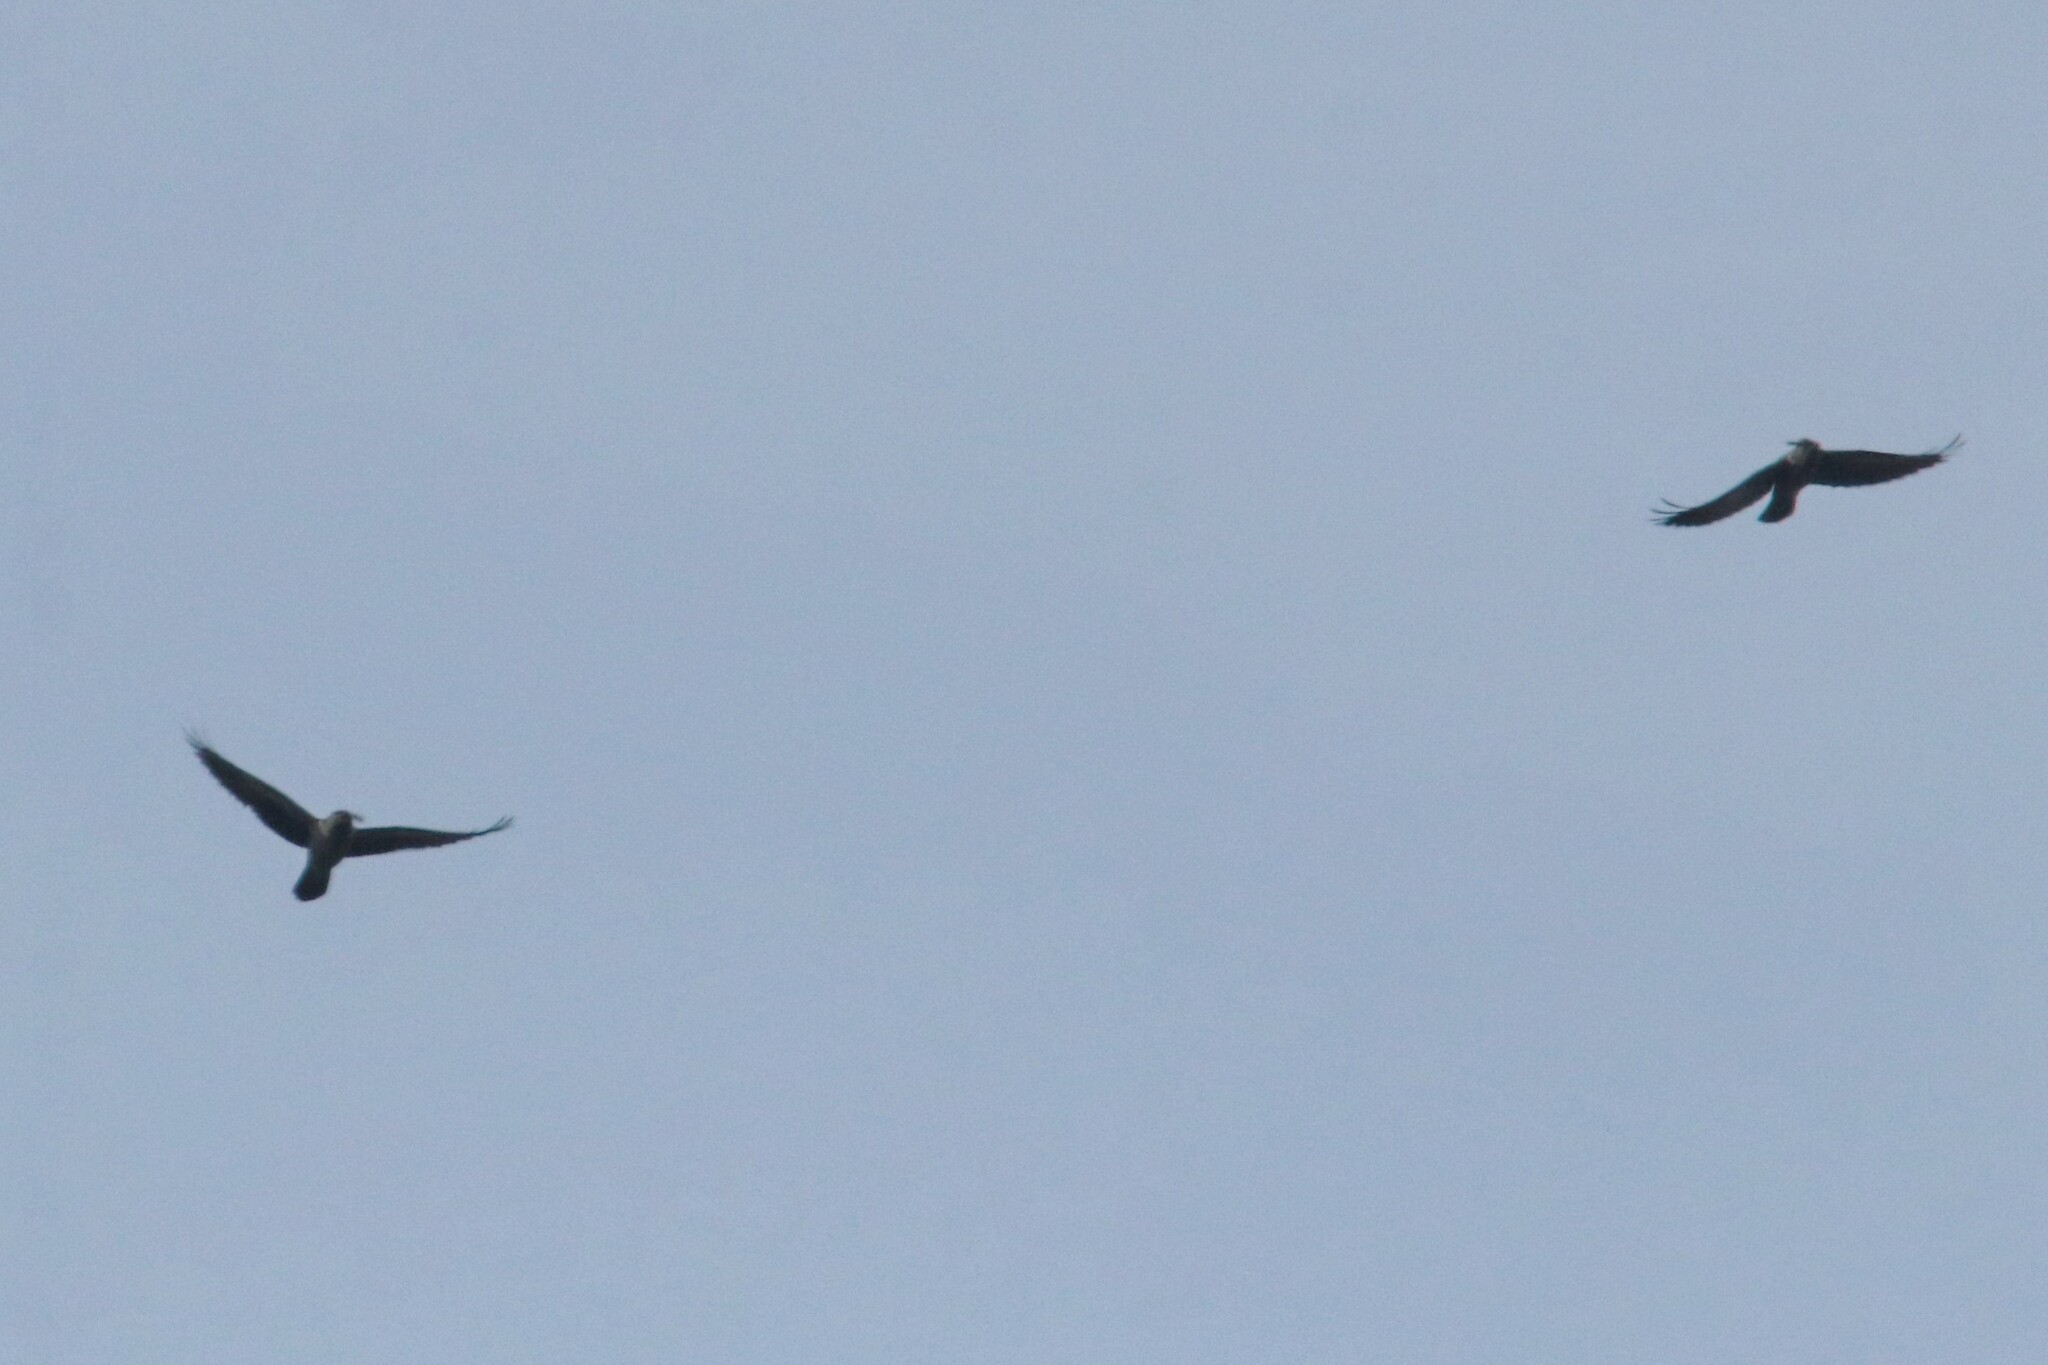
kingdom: Animalia
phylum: Chordata
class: Aves
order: Passeriformes
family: Corvidae
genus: Coloeus
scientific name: Coloeus monedula
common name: Western jackdaw
